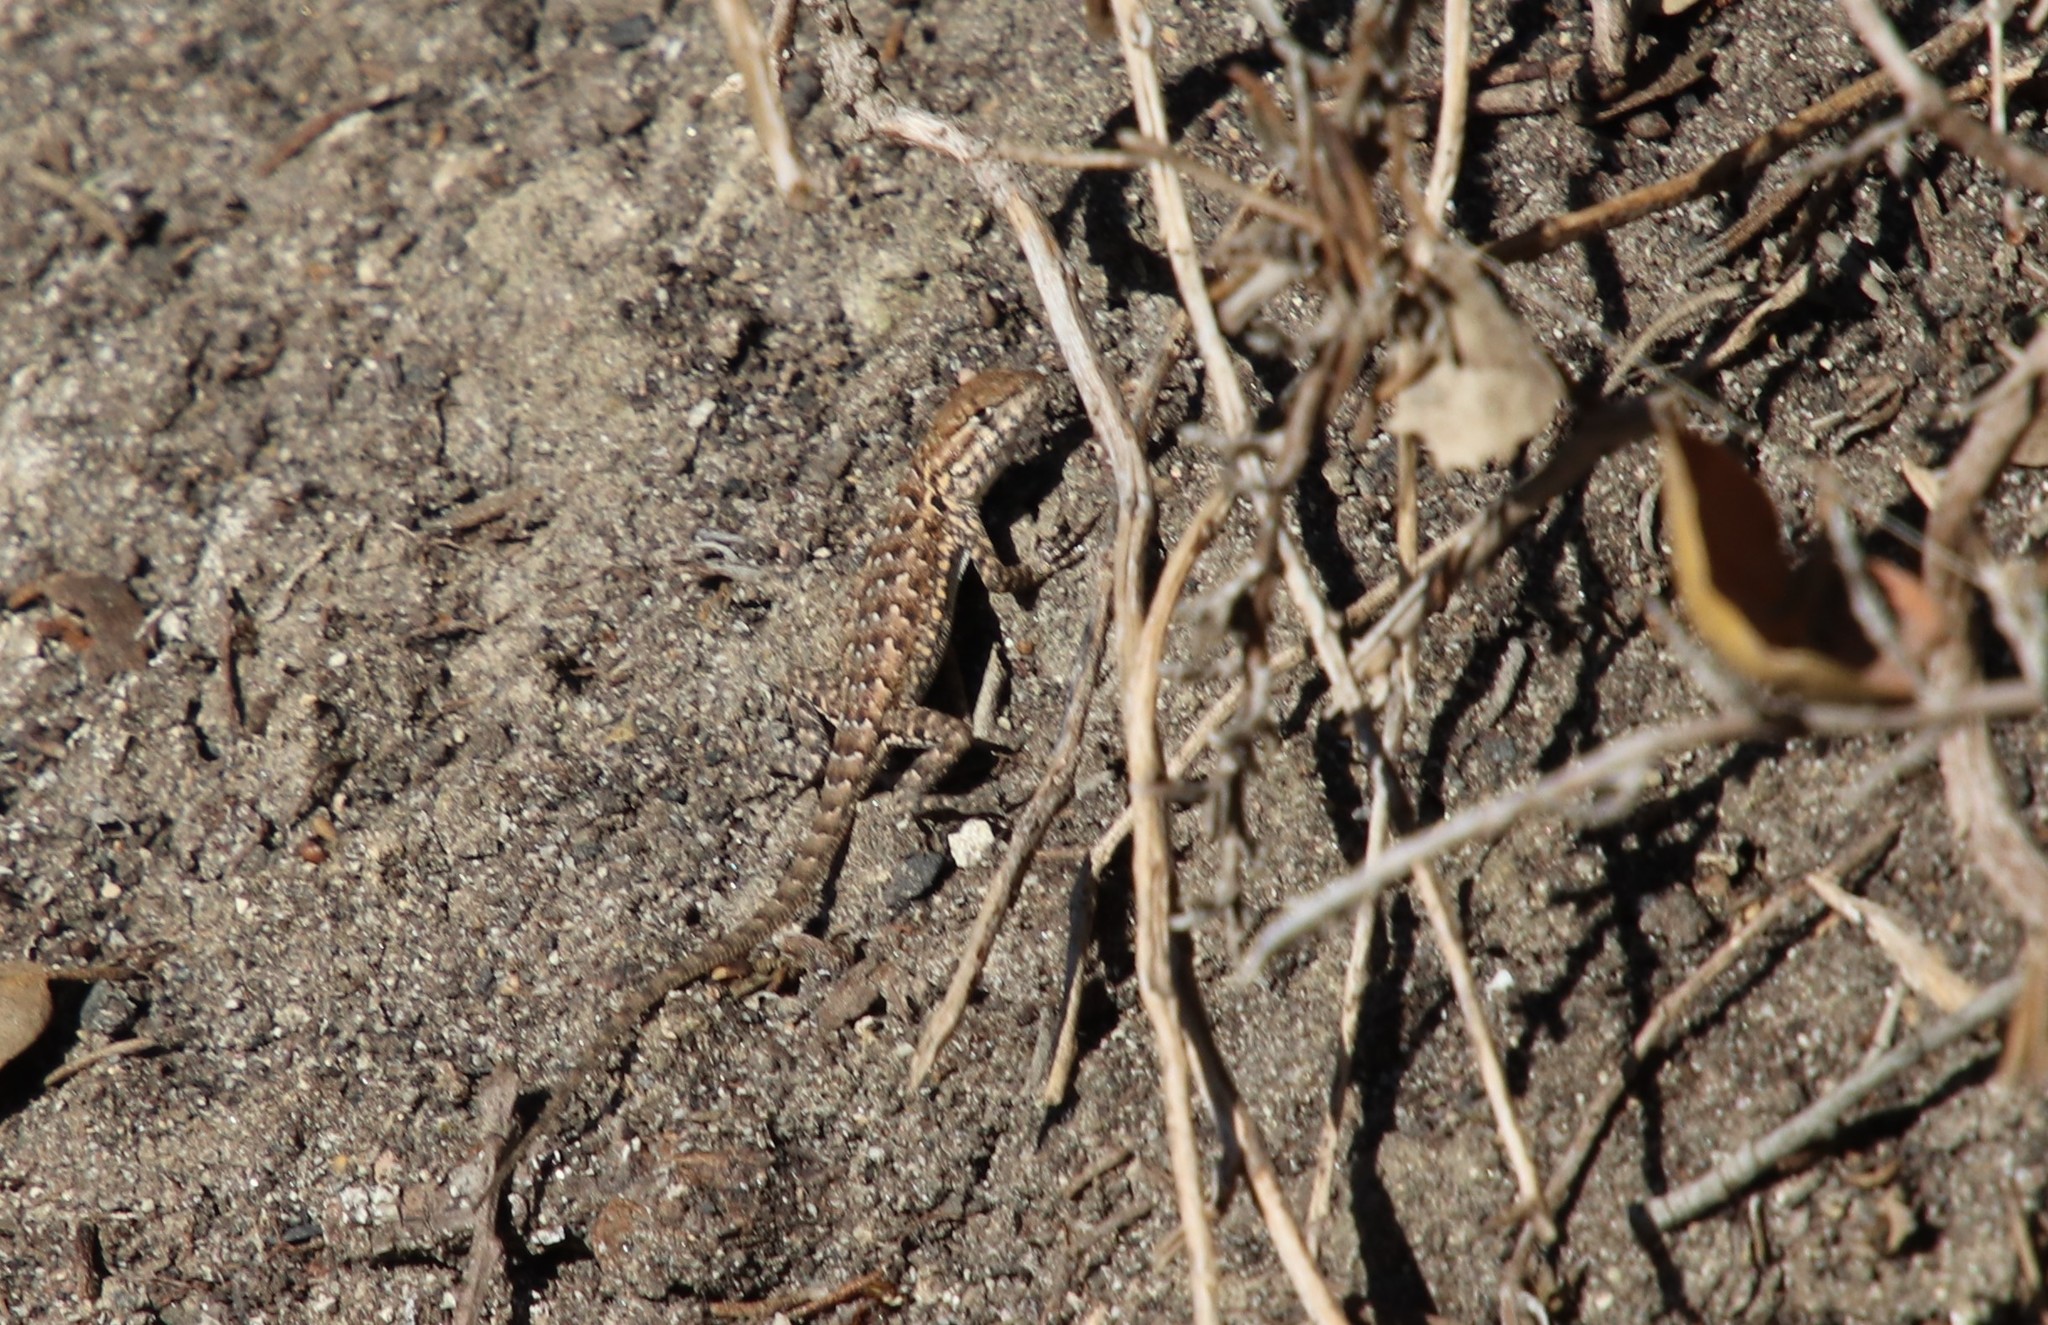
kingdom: Animalia
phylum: Chordata
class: Squamata
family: Phrynosomatidae
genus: Uta
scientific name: Uta stansburiana
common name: Side-blotched lizard
